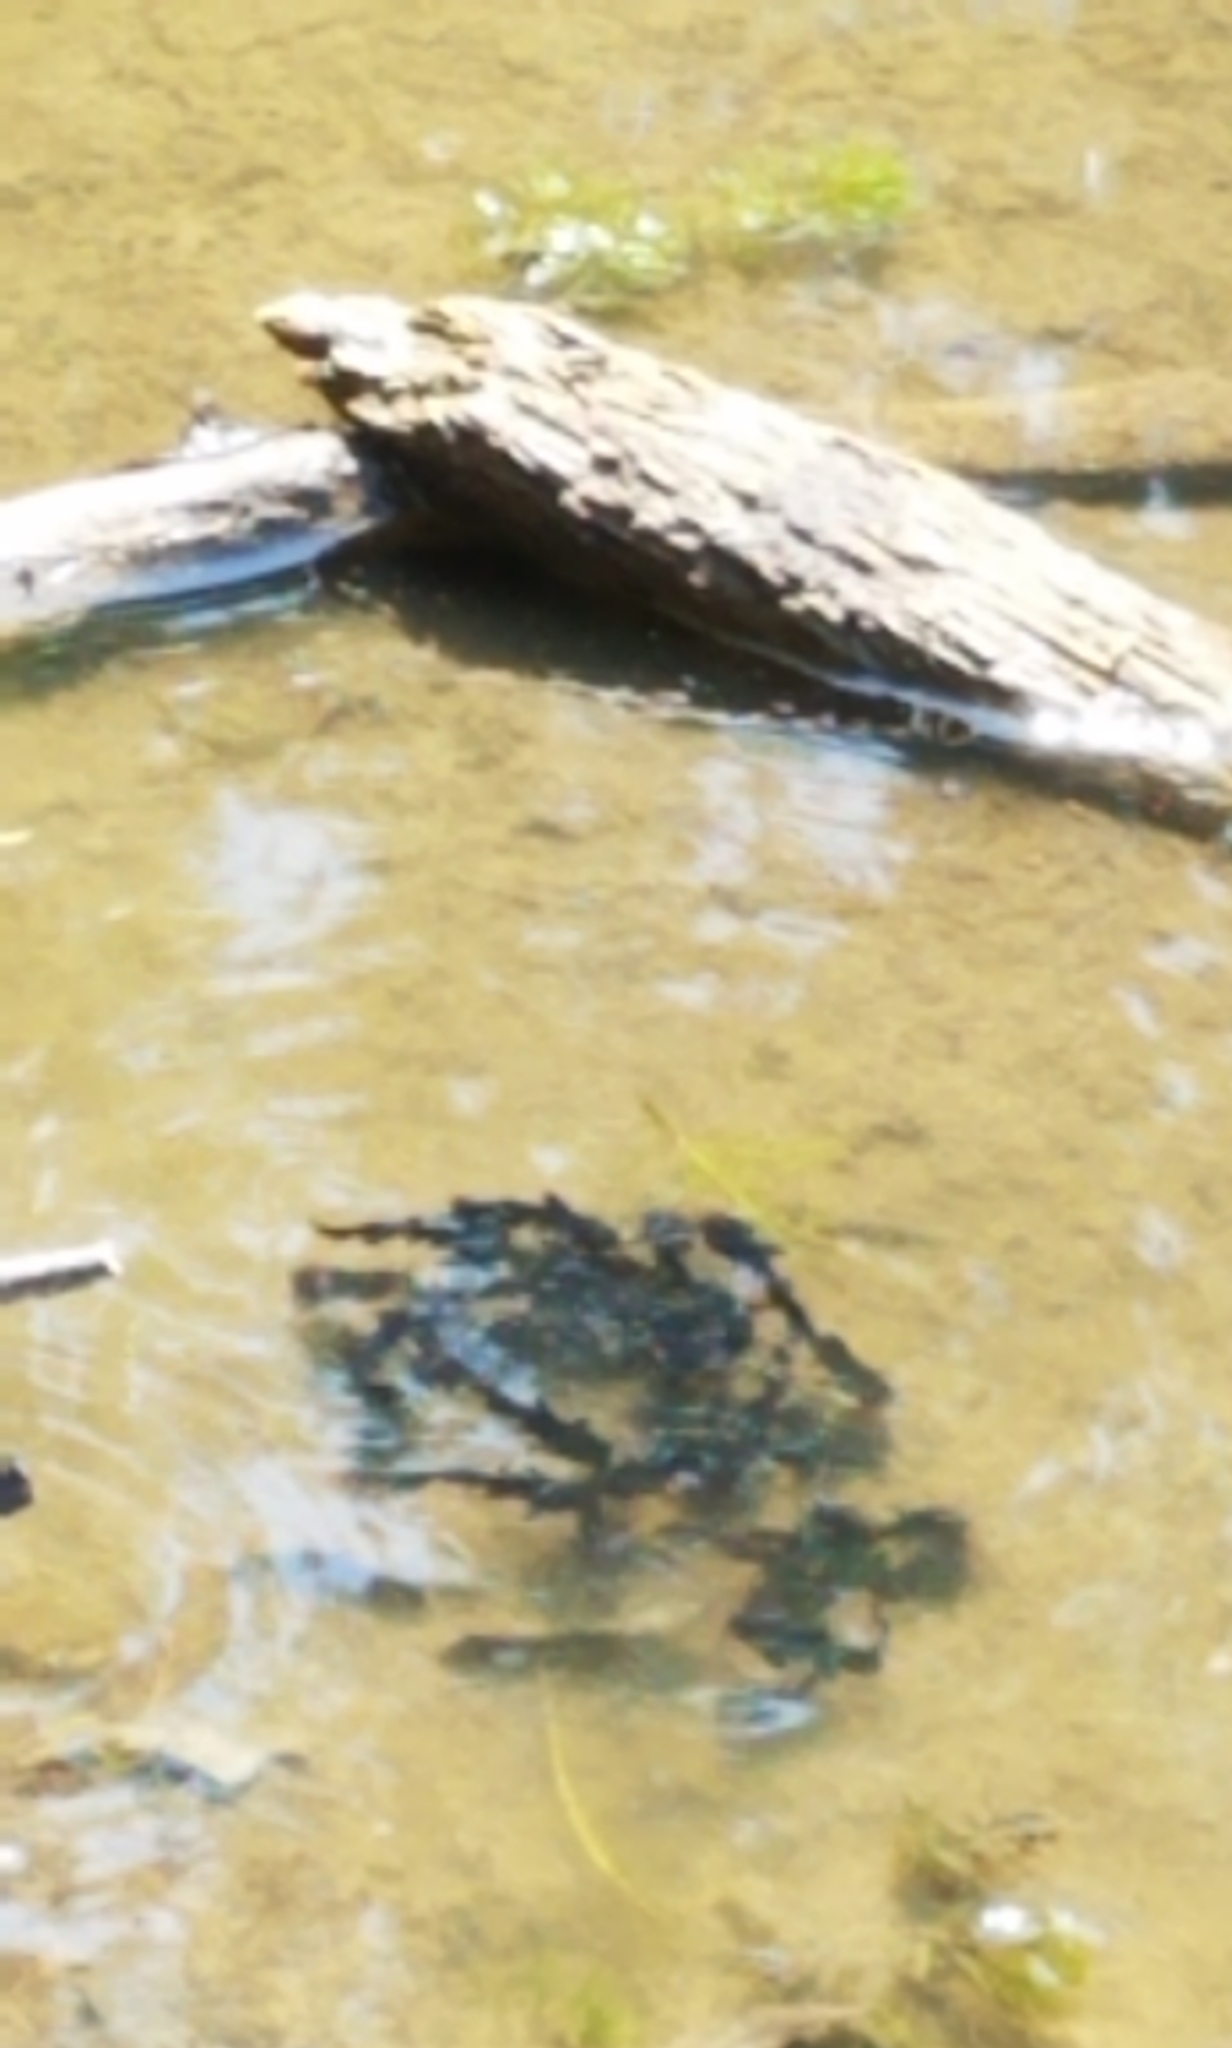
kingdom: Animalia
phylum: Chordata
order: Siluriformes
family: Ictaluridae
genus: Ameiurus
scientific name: Ameiurus melas
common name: Black bullhead
